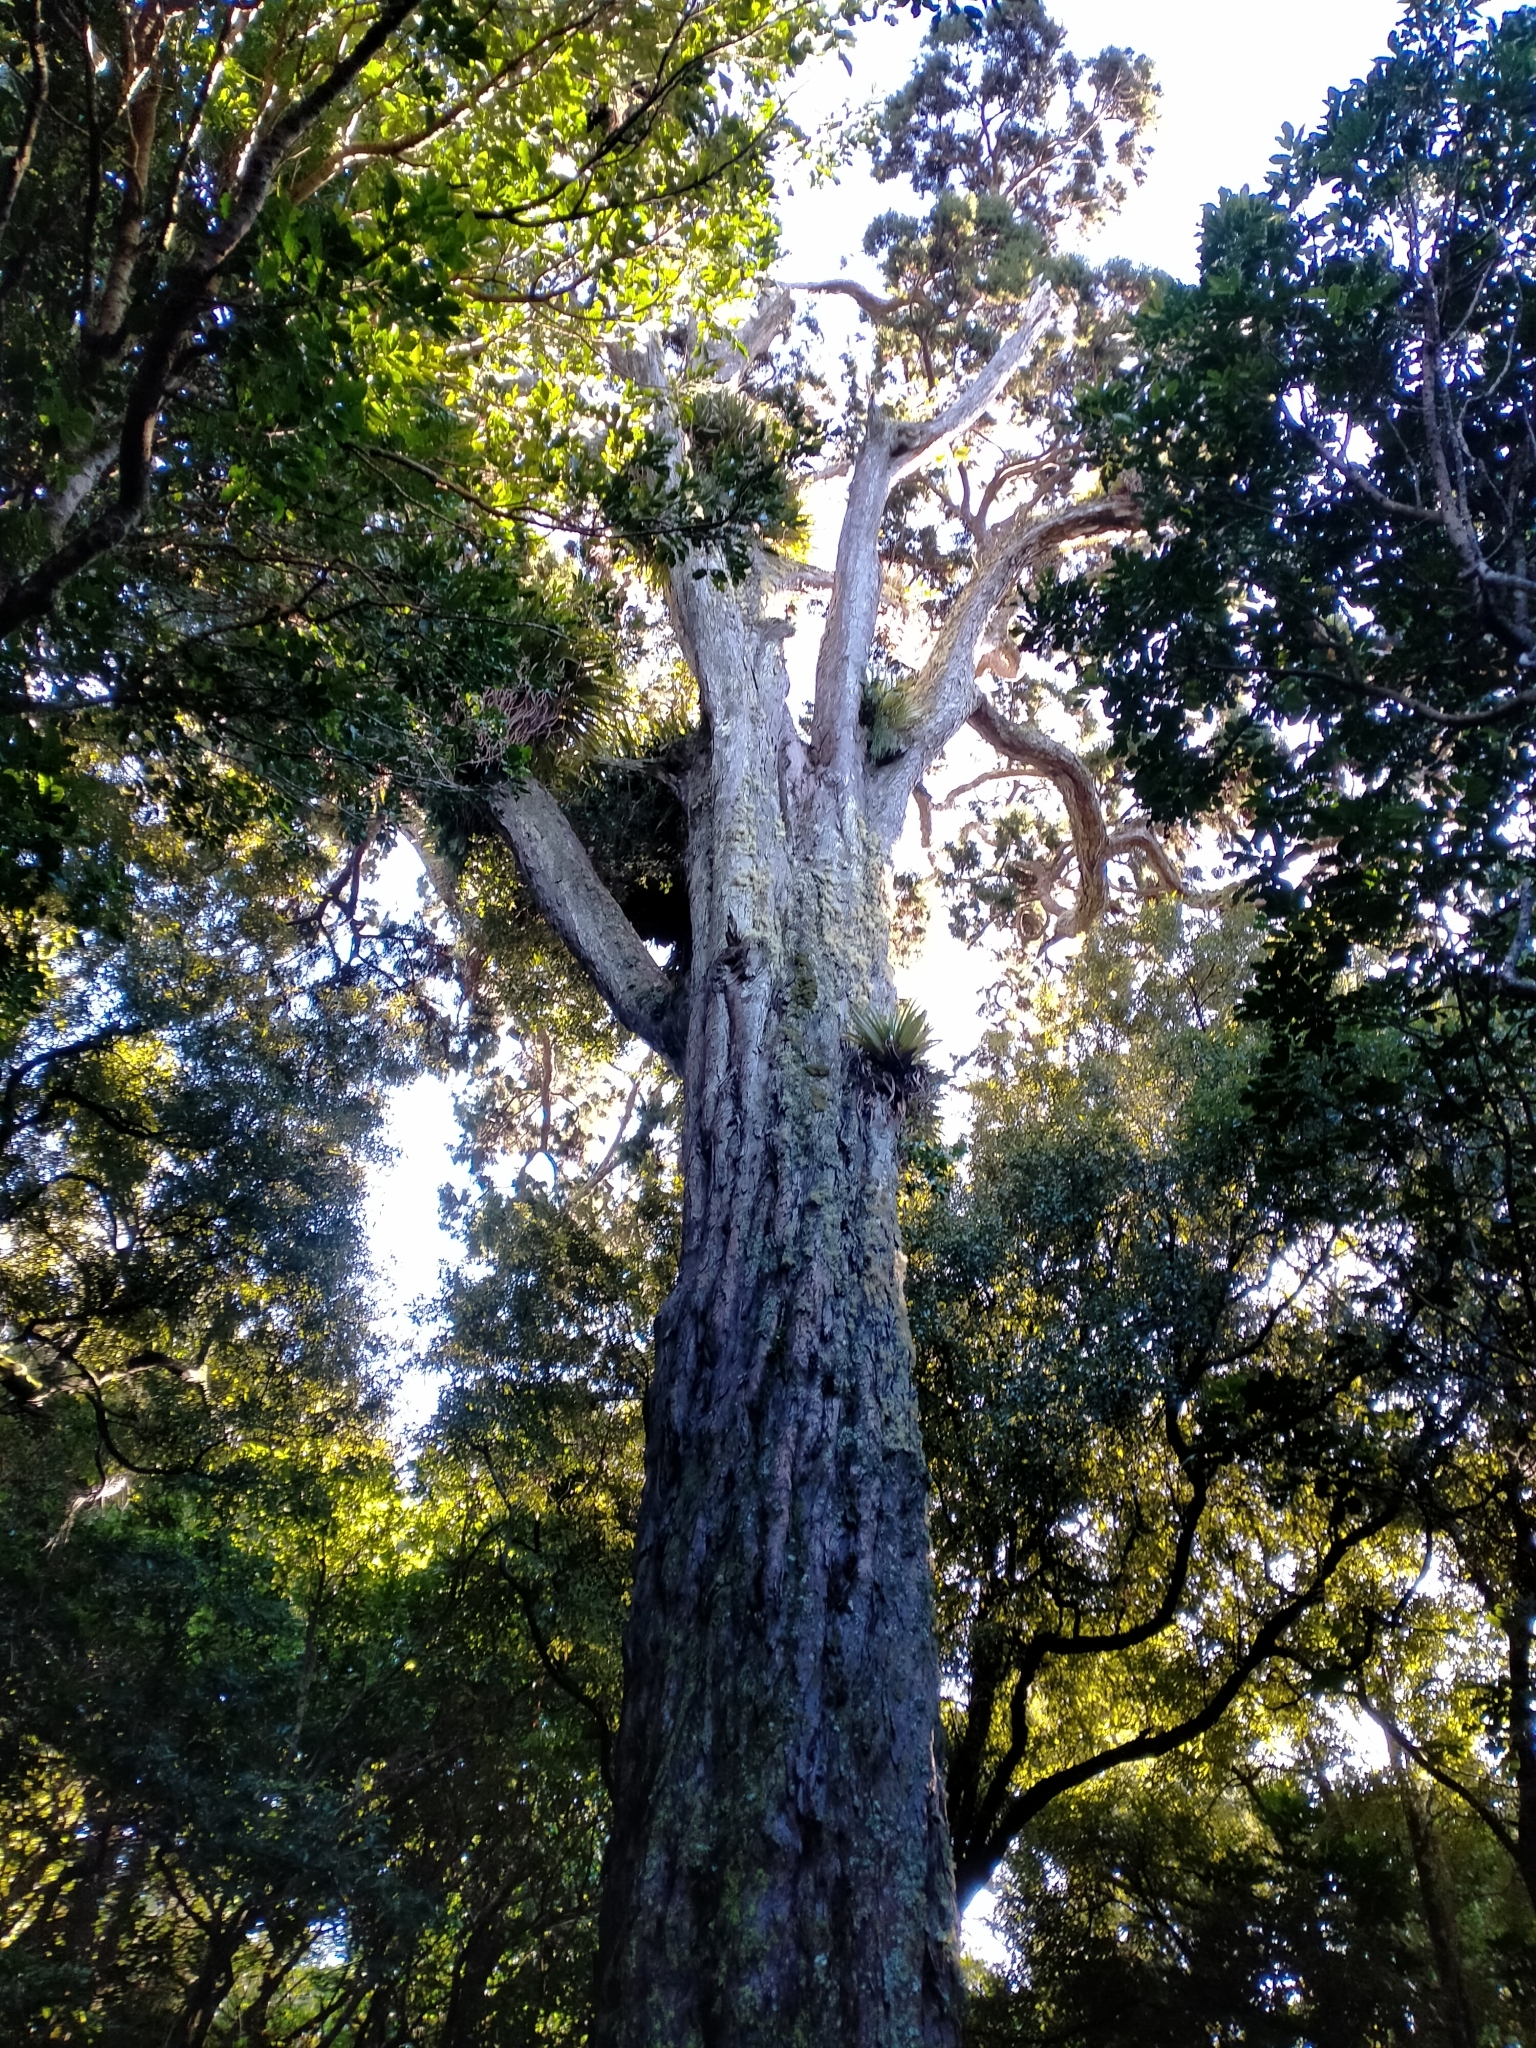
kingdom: Plantae
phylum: Tracheophyta
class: Pinopsida
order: Pinales
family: Podocarpaceae
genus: Dacrydium
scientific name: Dacrydium cupressinum
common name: Red pine
